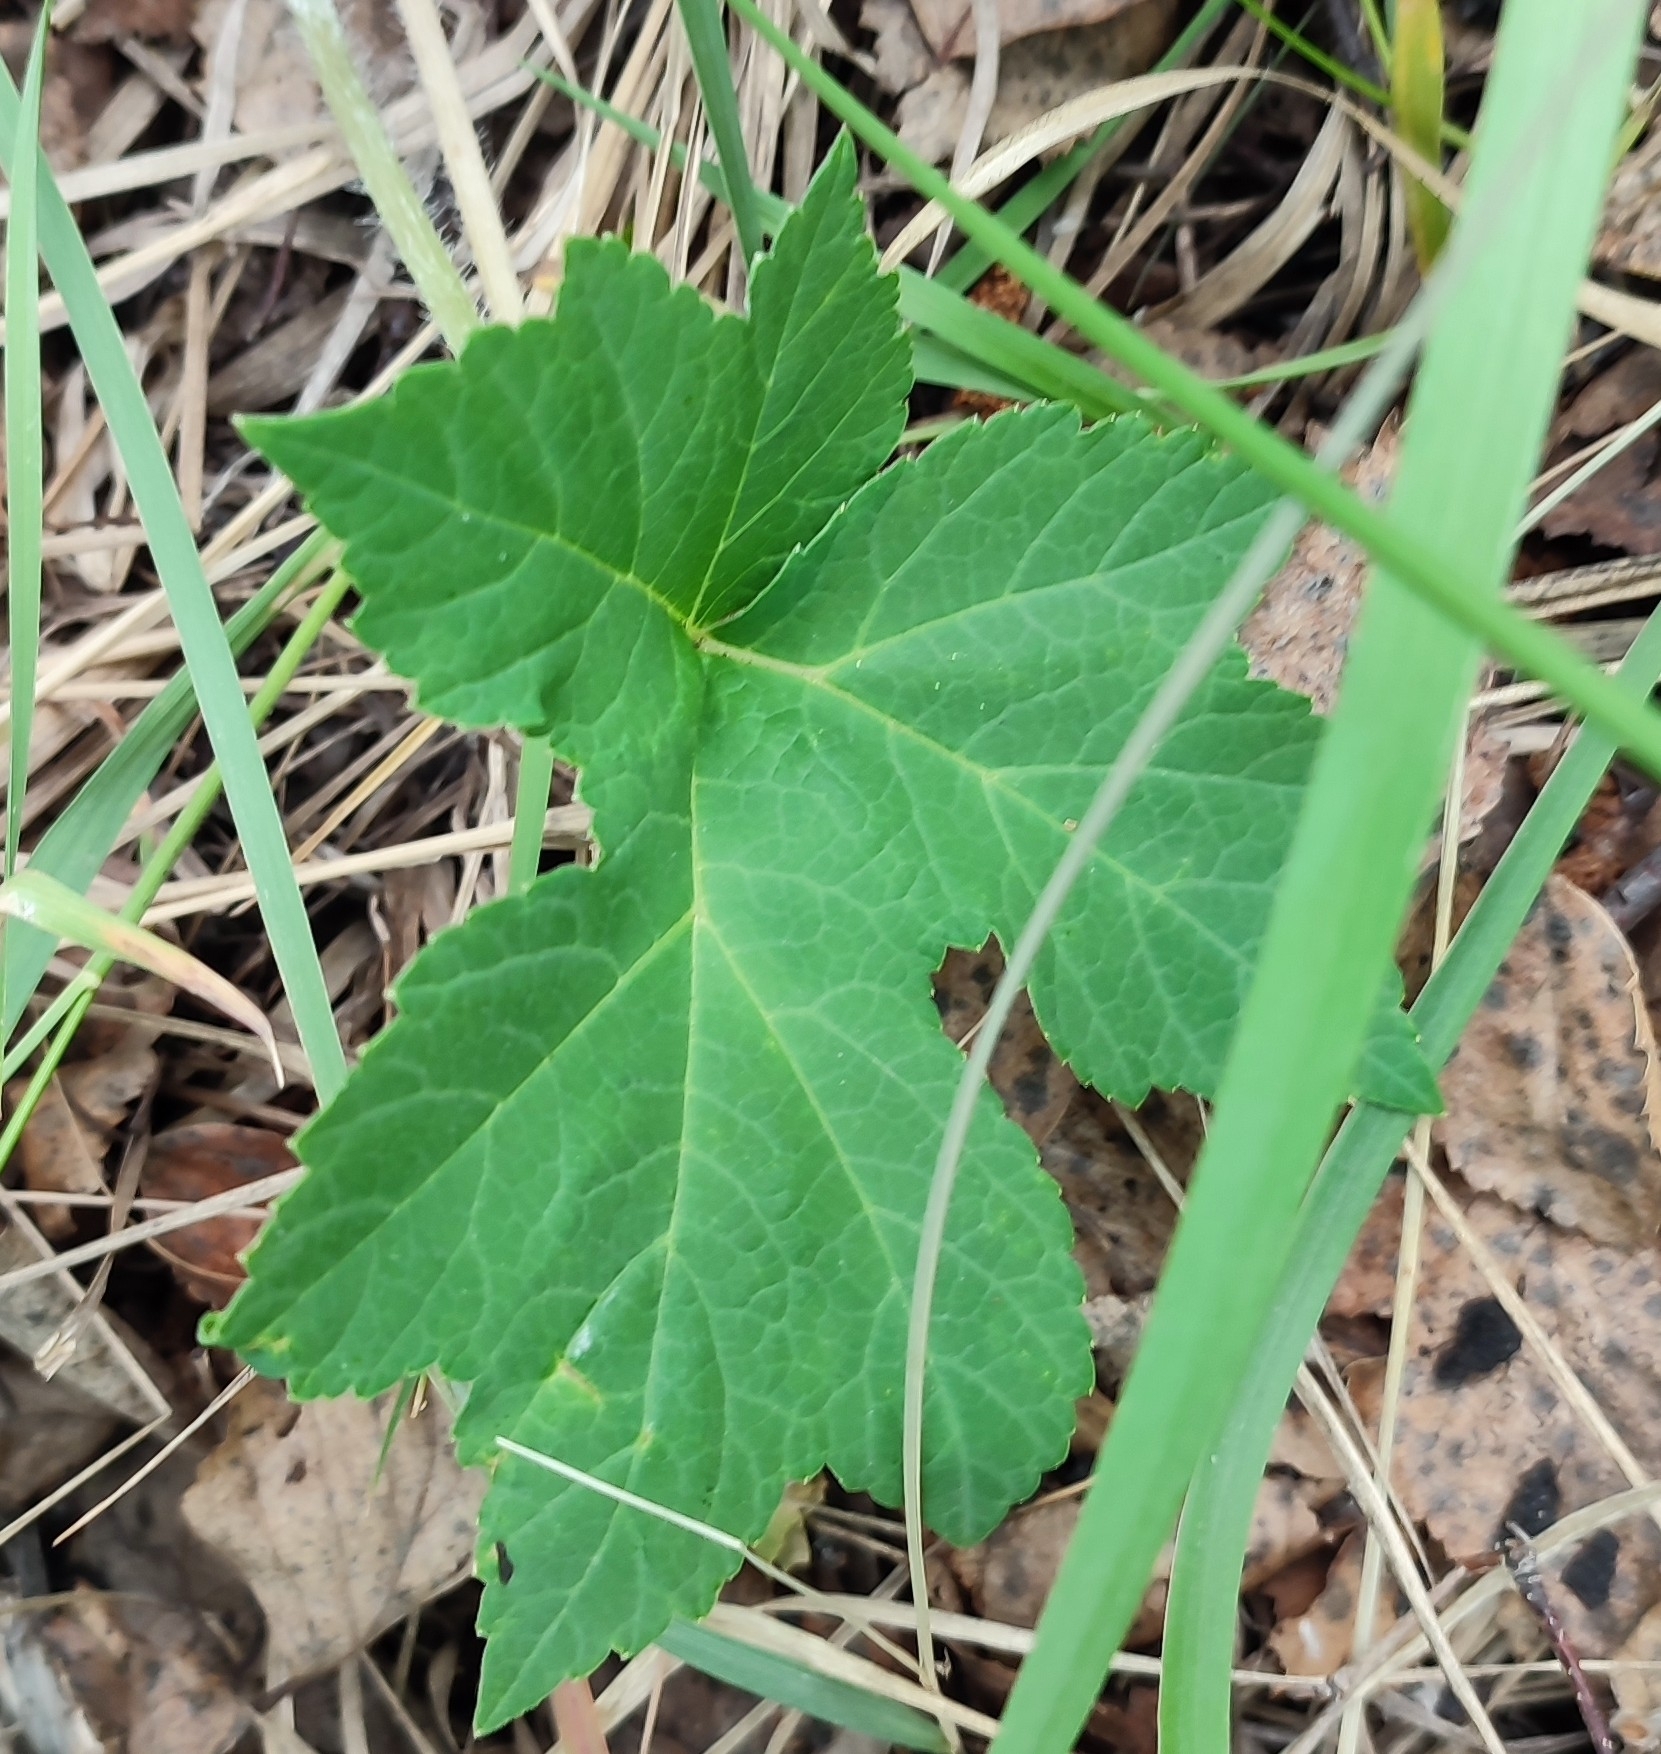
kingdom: Plantae
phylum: Tracheophyta
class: Magnoliopsida
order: Apiales
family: Apiaceae
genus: Heracleum
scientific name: Heracleum sphondylium
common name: Hogweed
